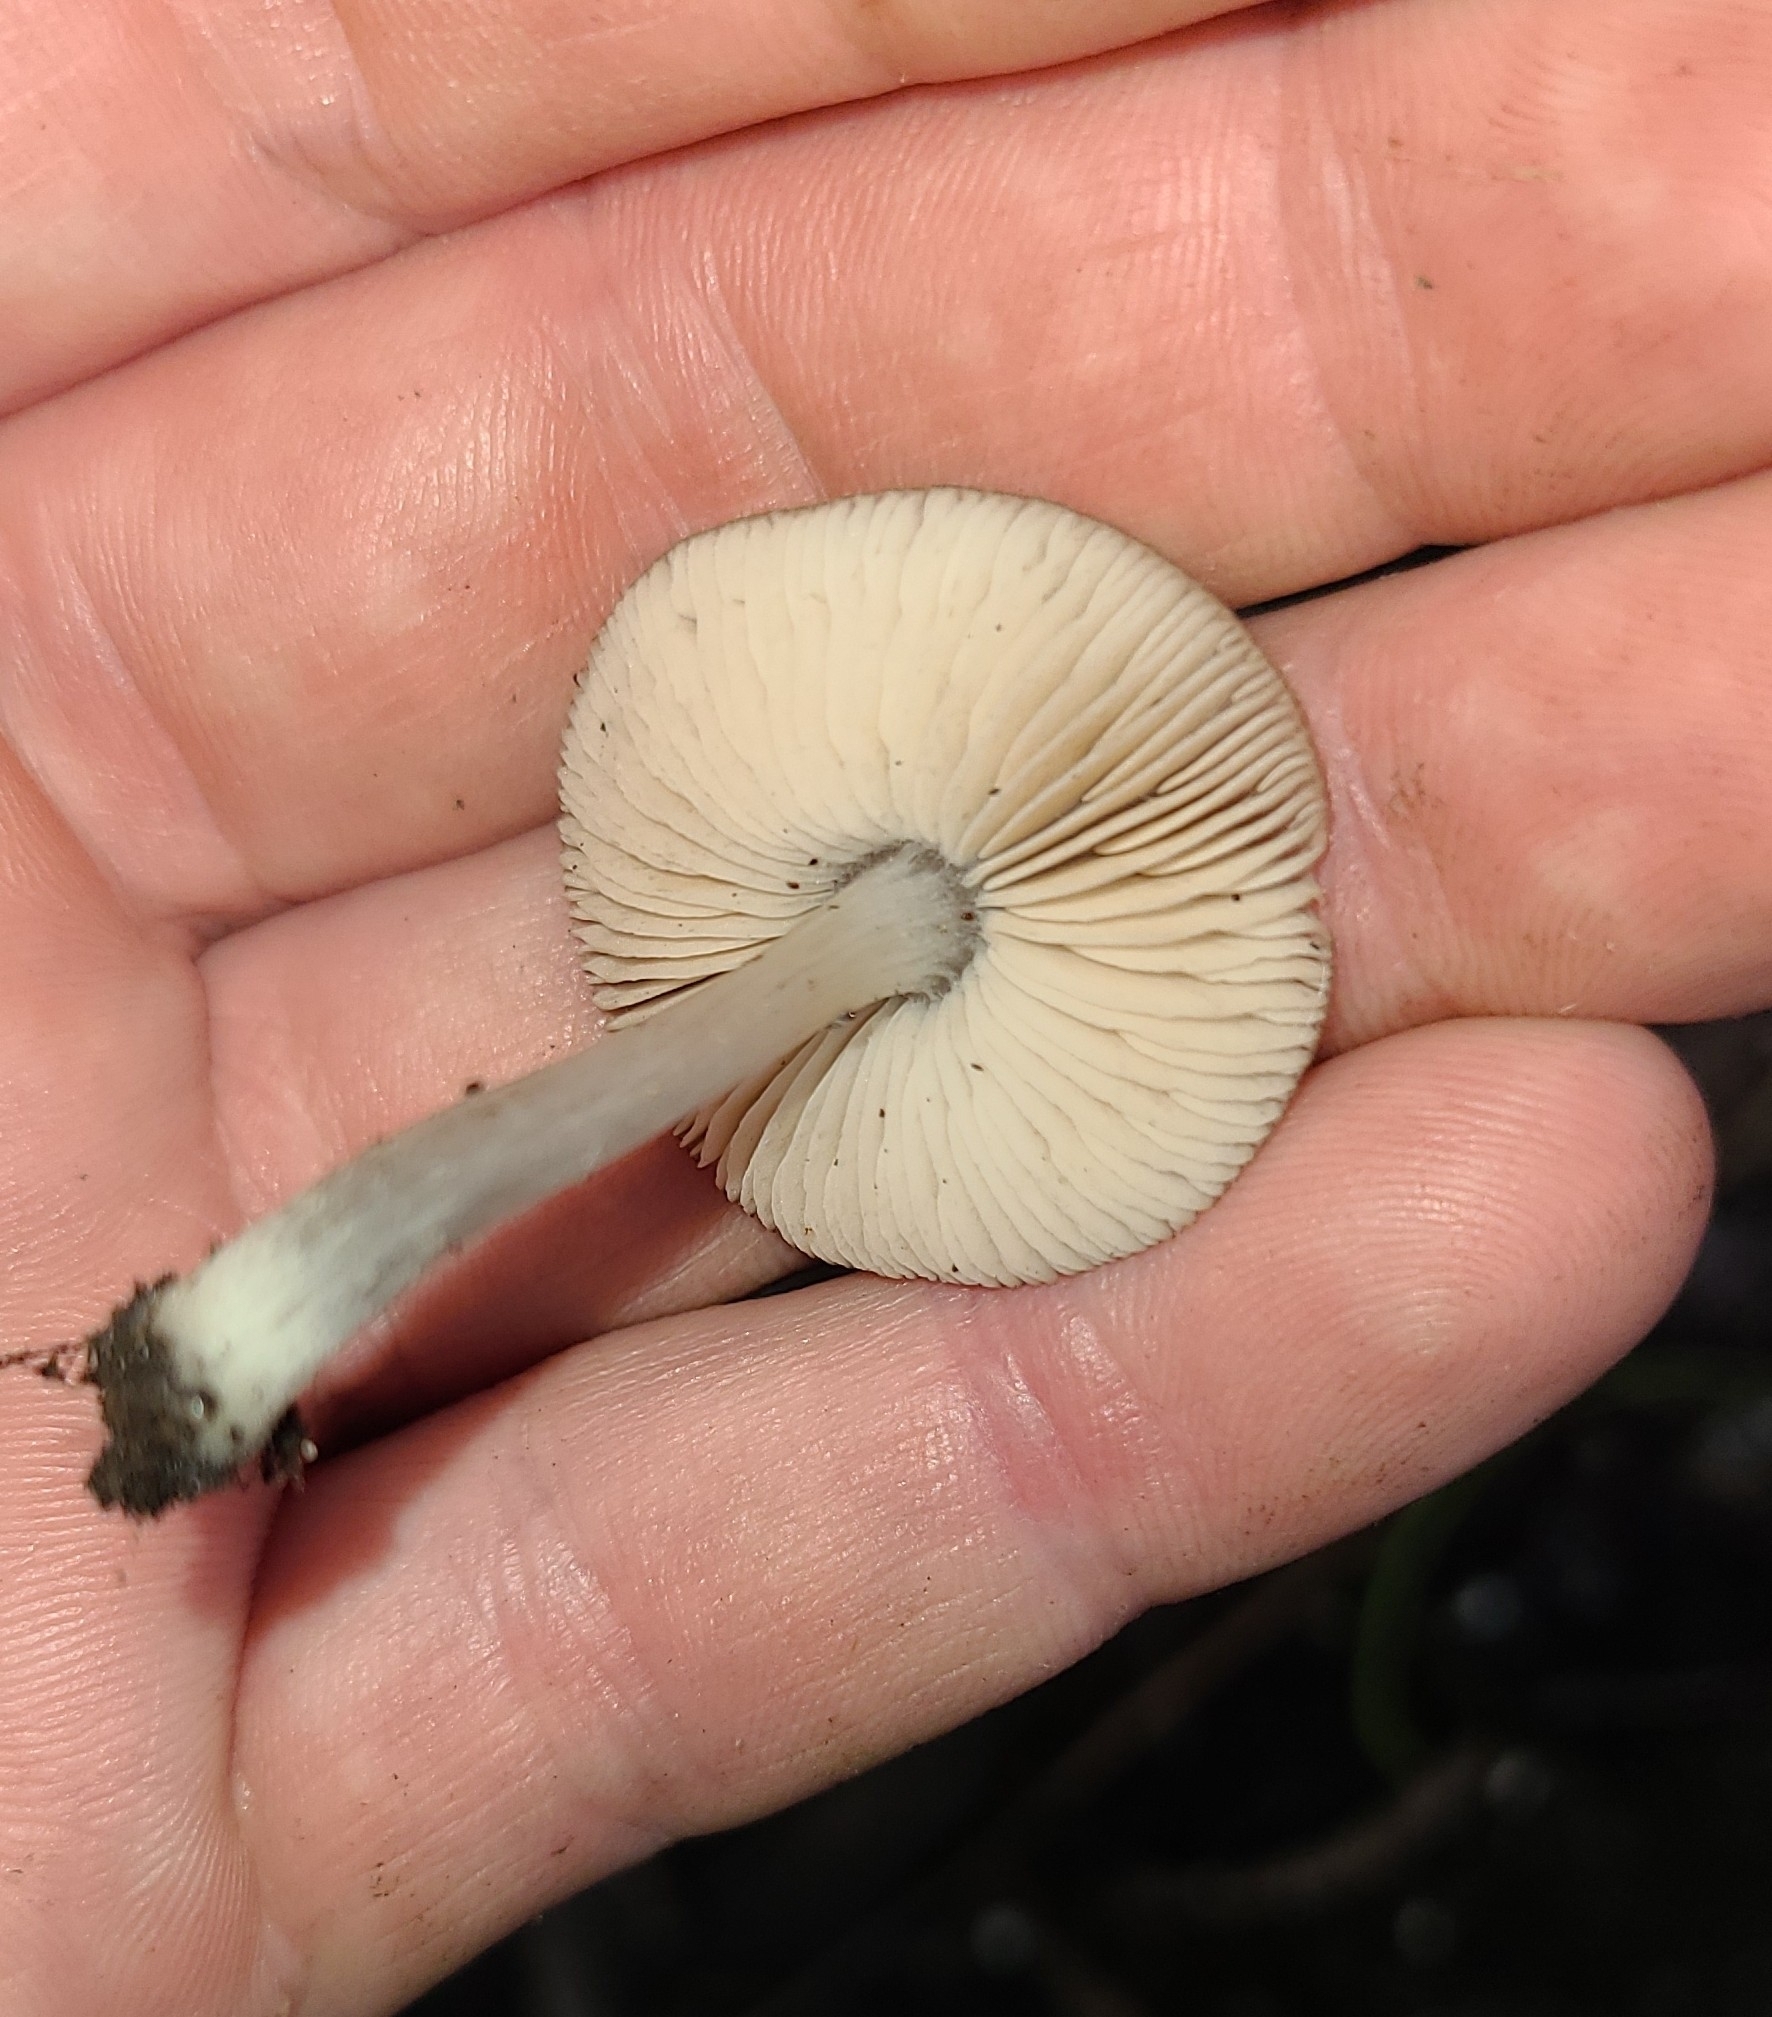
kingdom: Fungi
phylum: Basidiomycota
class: Agaricomycetes
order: Agaricales
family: Pluteaceae
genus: Pluteus
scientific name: Pluteus velutinornatus
